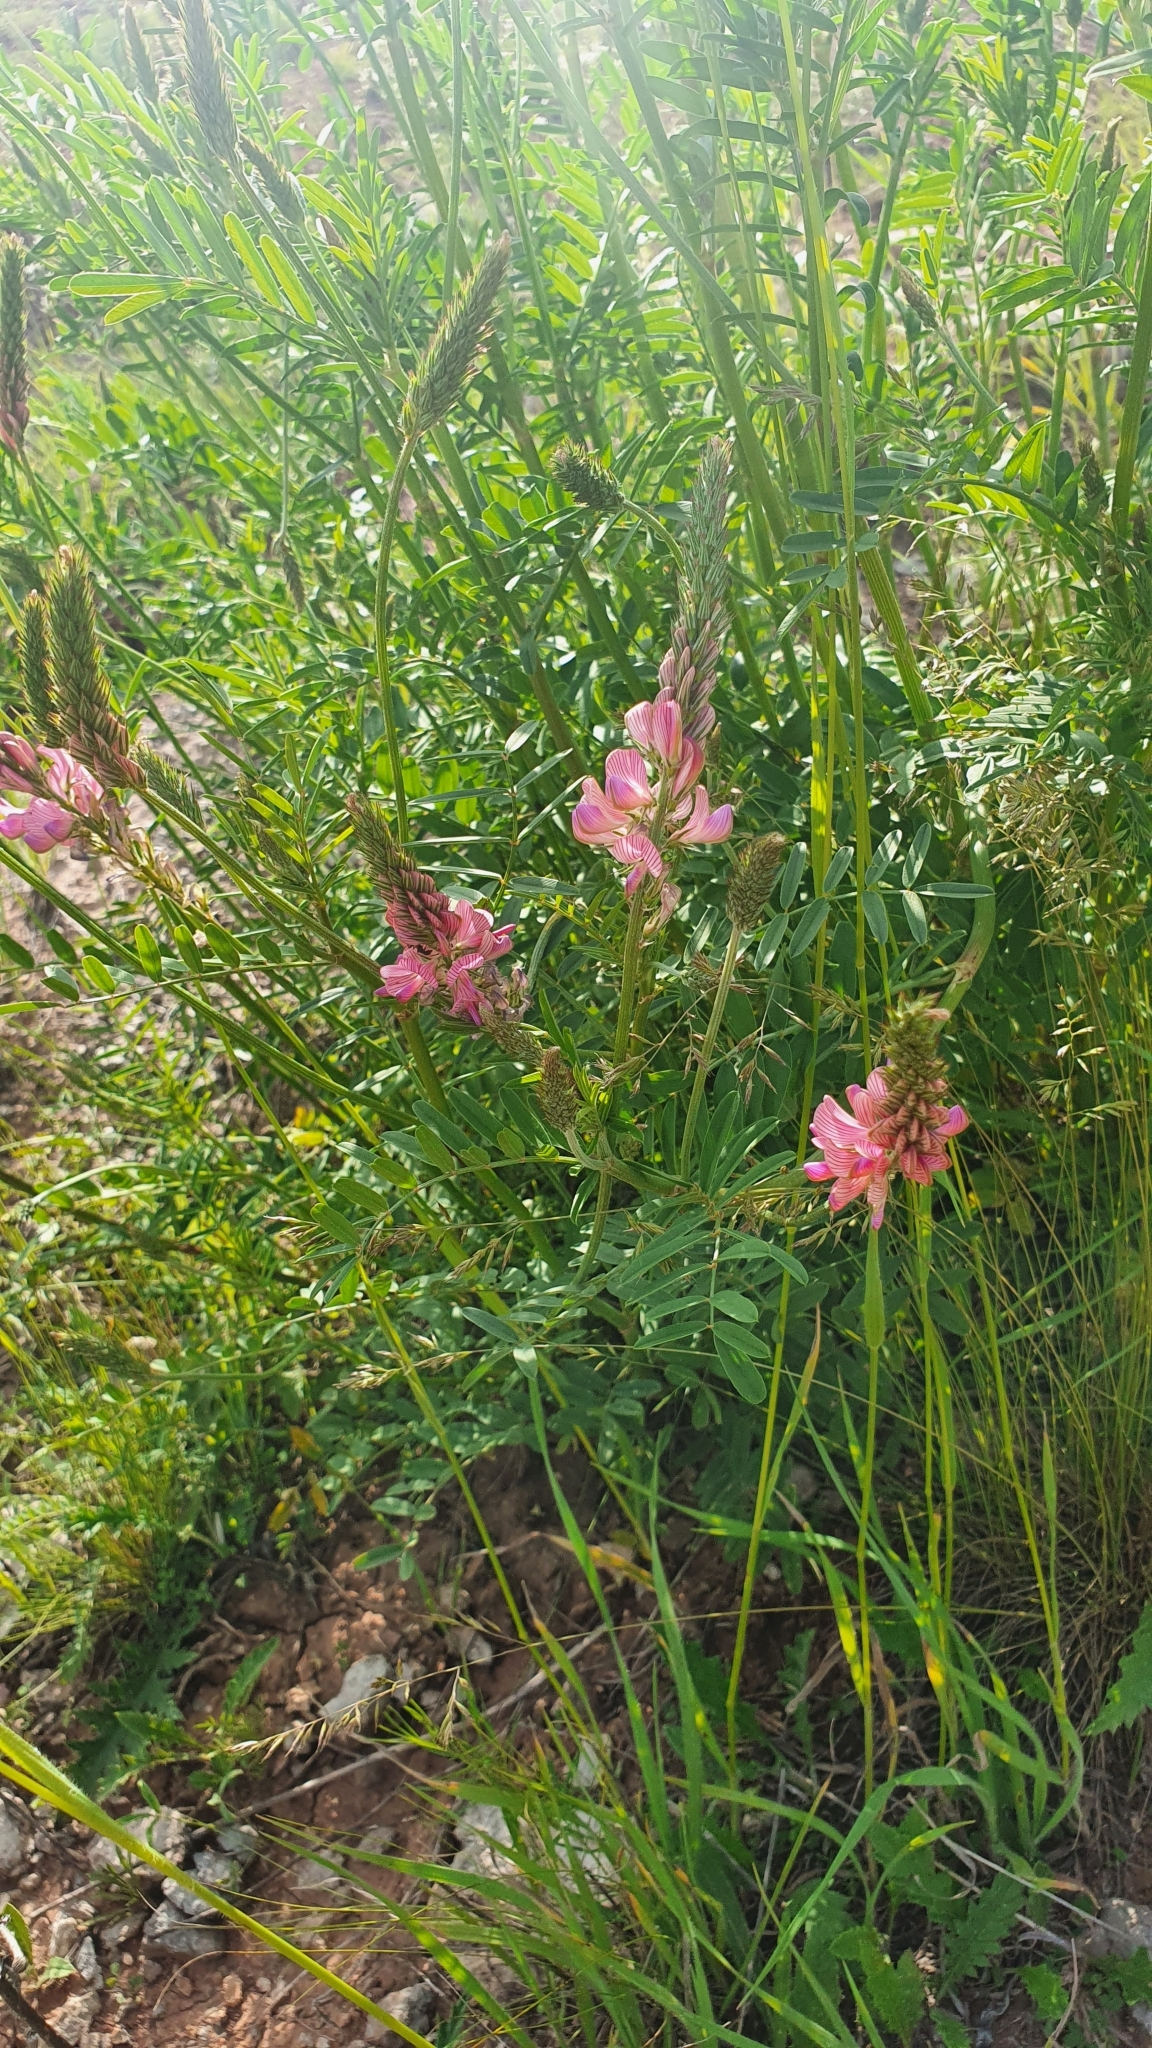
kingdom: Plantae
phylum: Tracheophyta
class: Magnoliopsida
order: Fabales
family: Fabaceae
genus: Onobrychis
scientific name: Onobrychis arenaria
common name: Sand esparcet
